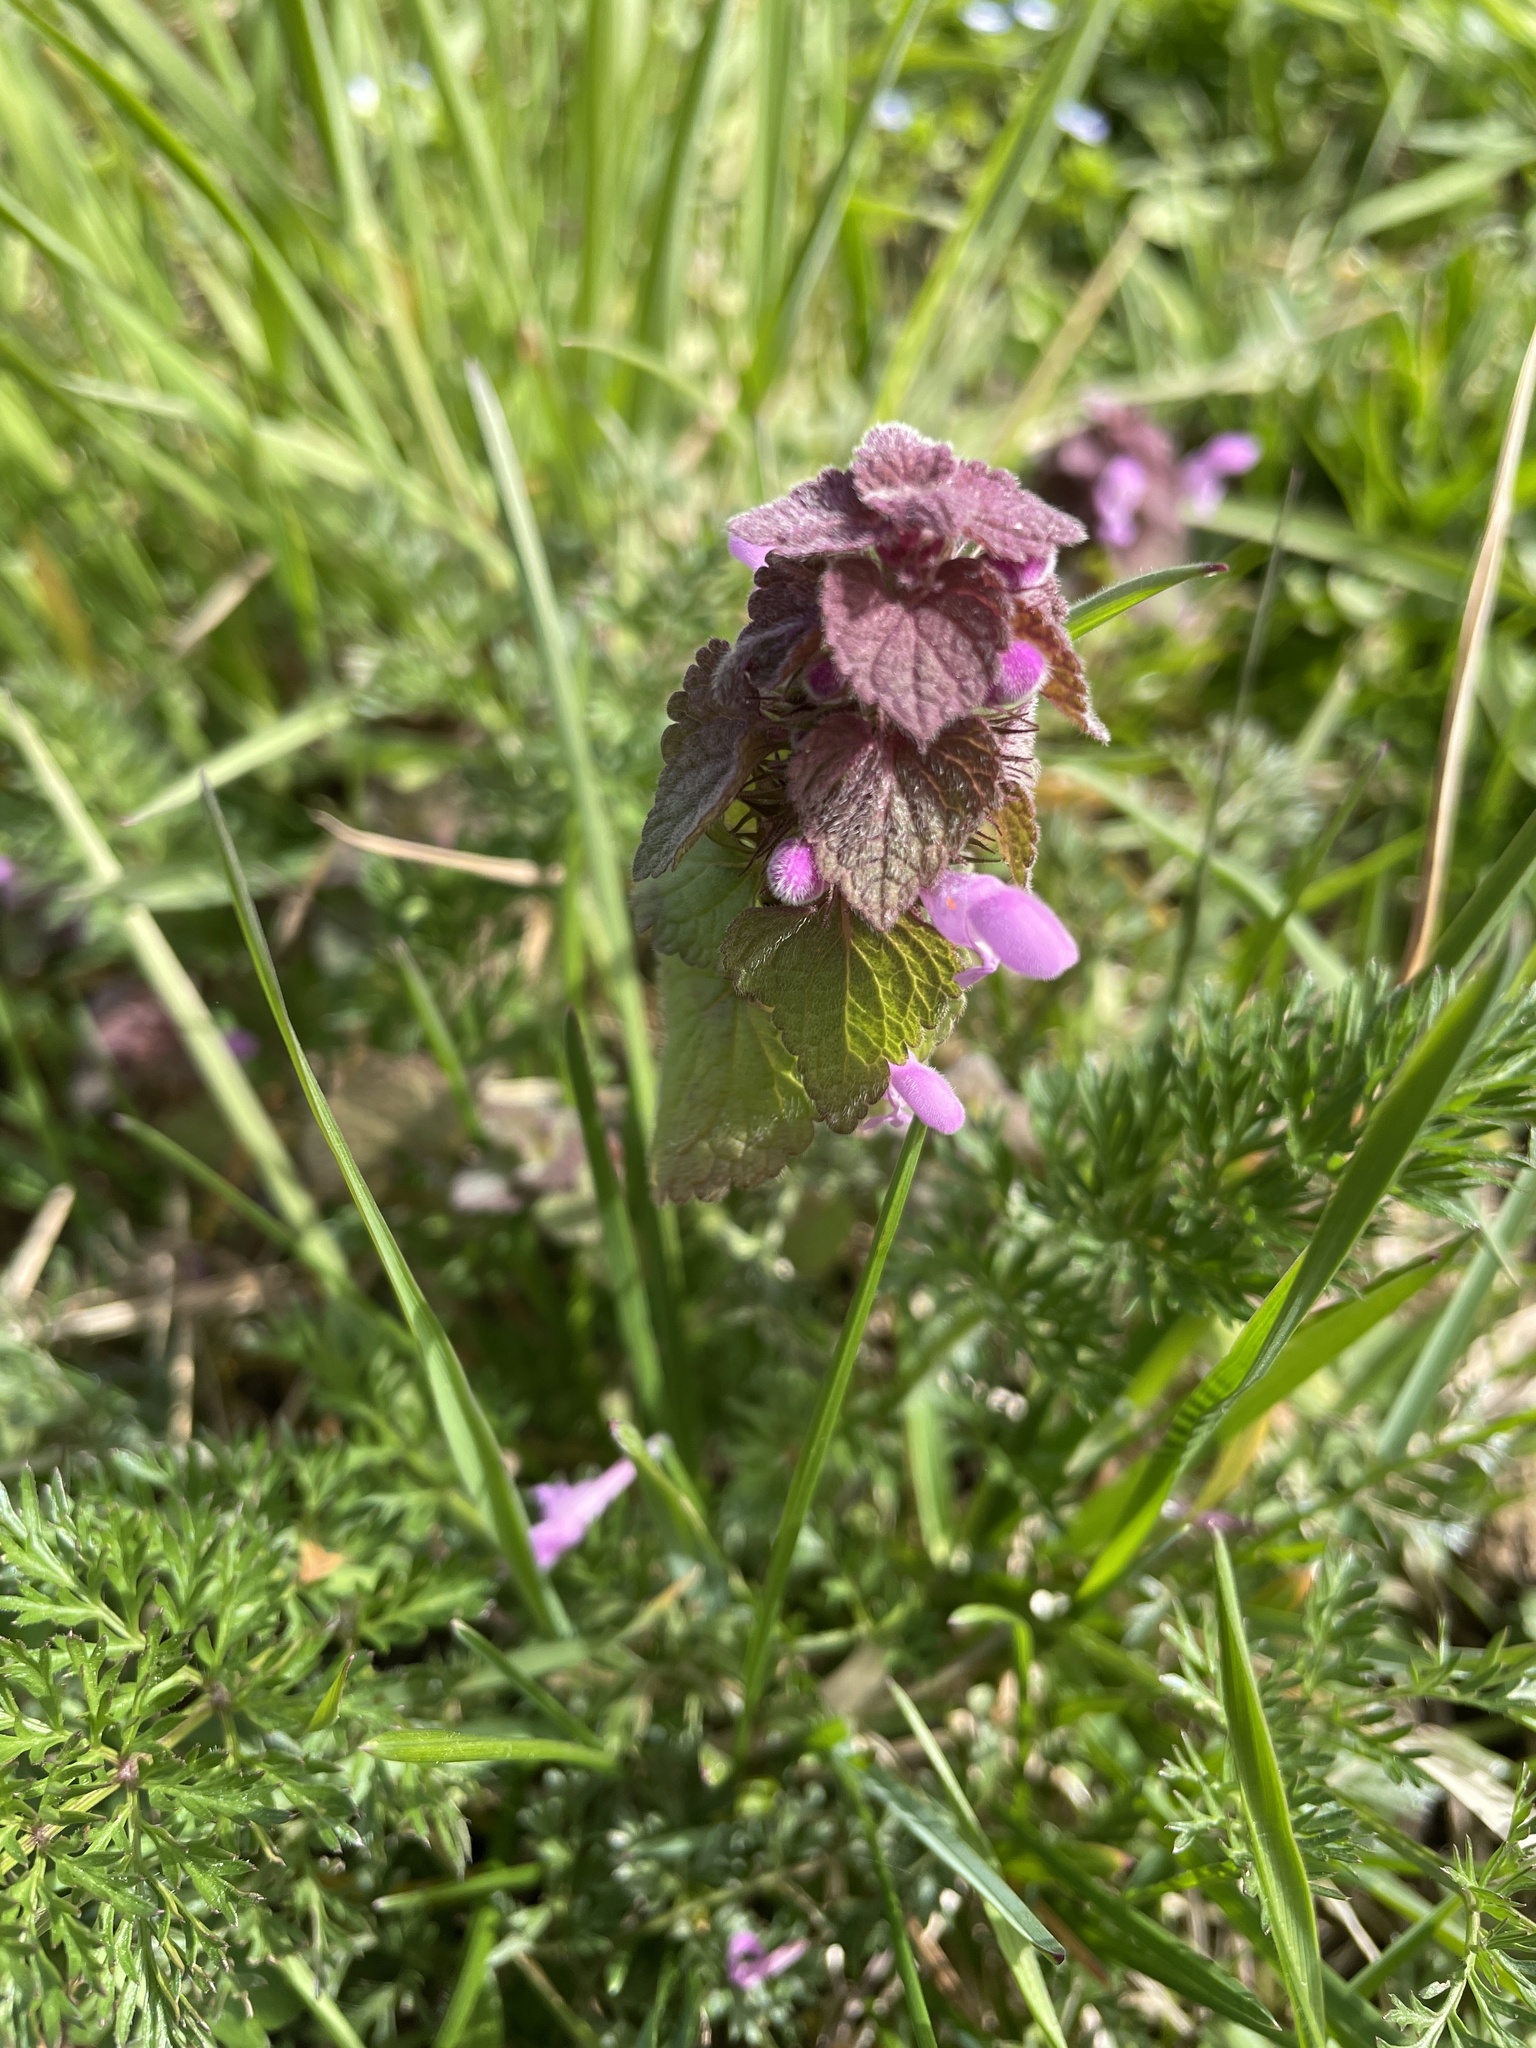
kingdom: Plantae
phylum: Tracheophyta
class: Magnoliopsida
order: Lamiales
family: Lamiaceae
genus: Lamium
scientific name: Lamium purpureum
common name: Red dead-nettle
